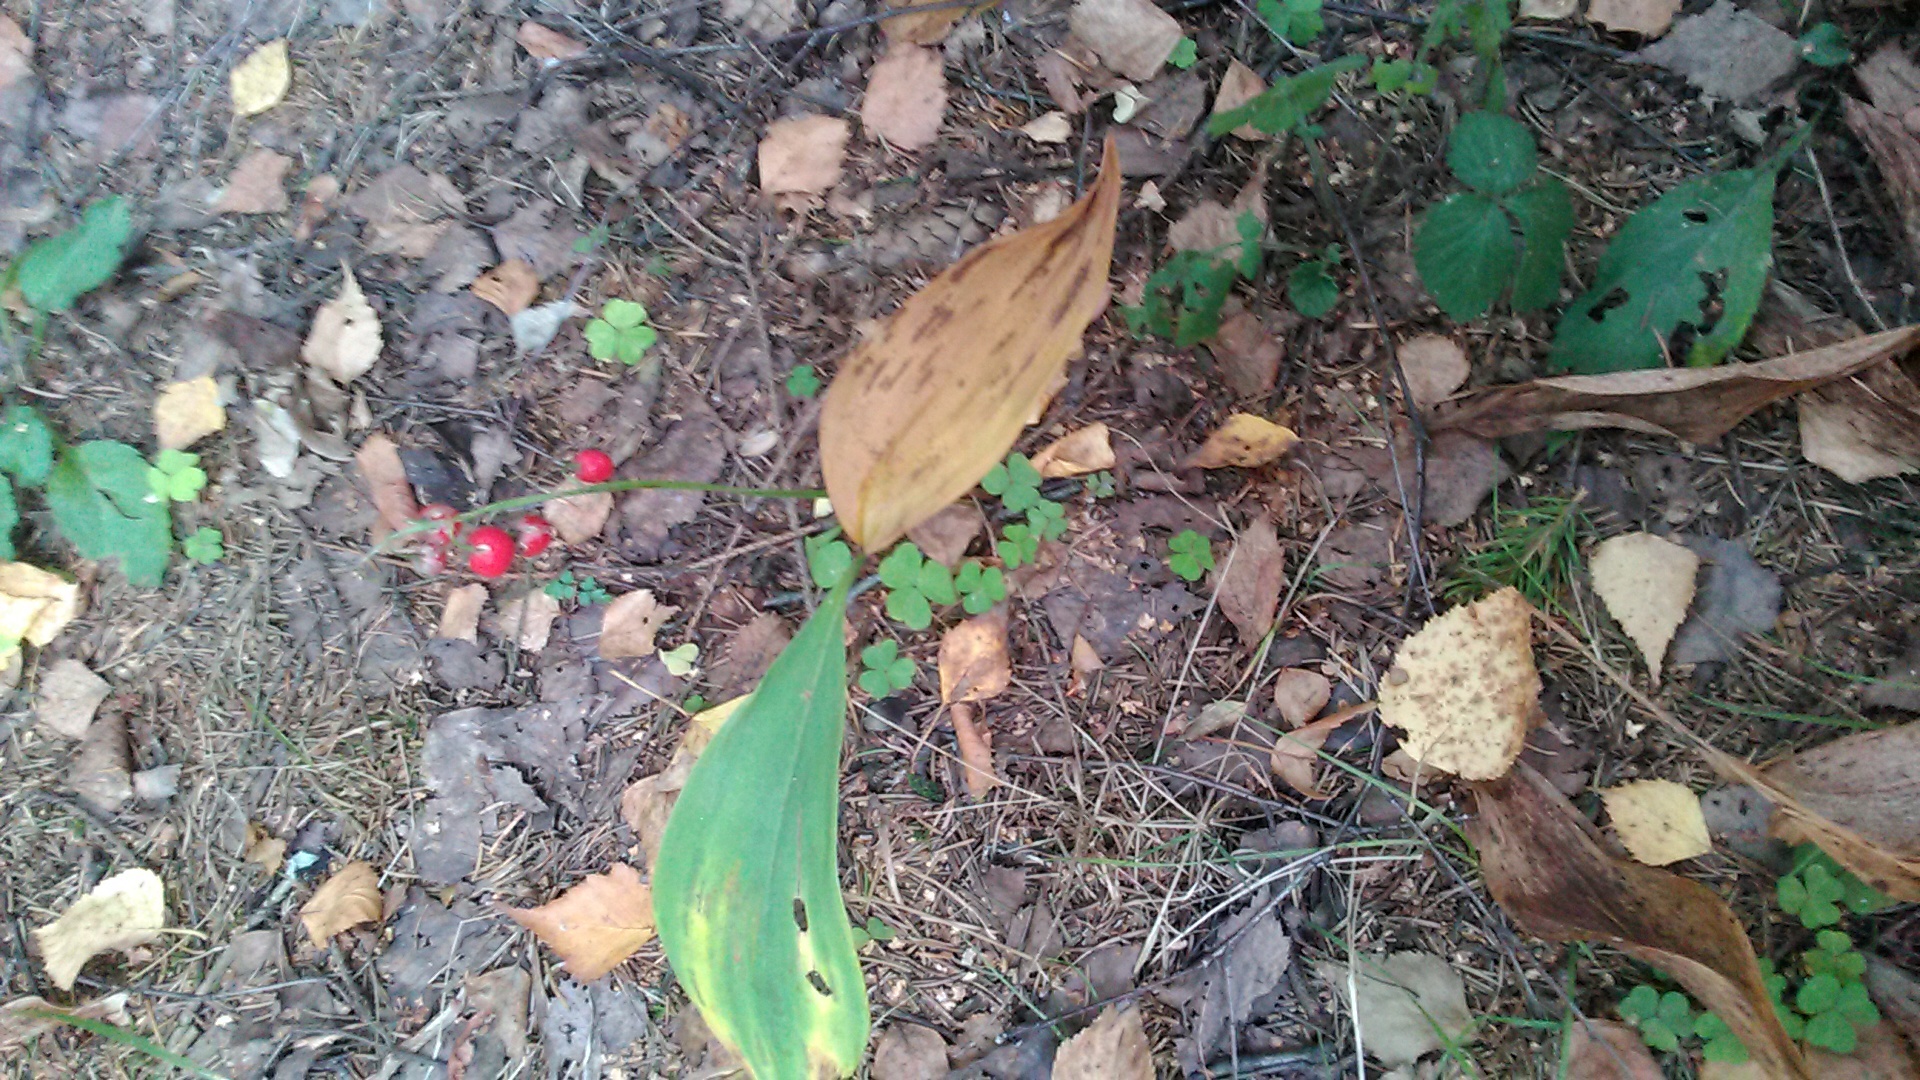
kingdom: Plantae
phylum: Tracheophyta
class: Liliopsida
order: Asparagales
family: Asparagaceae
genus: Convallaria
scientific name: Convallaria majalis
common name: Lily-of-the-valley
